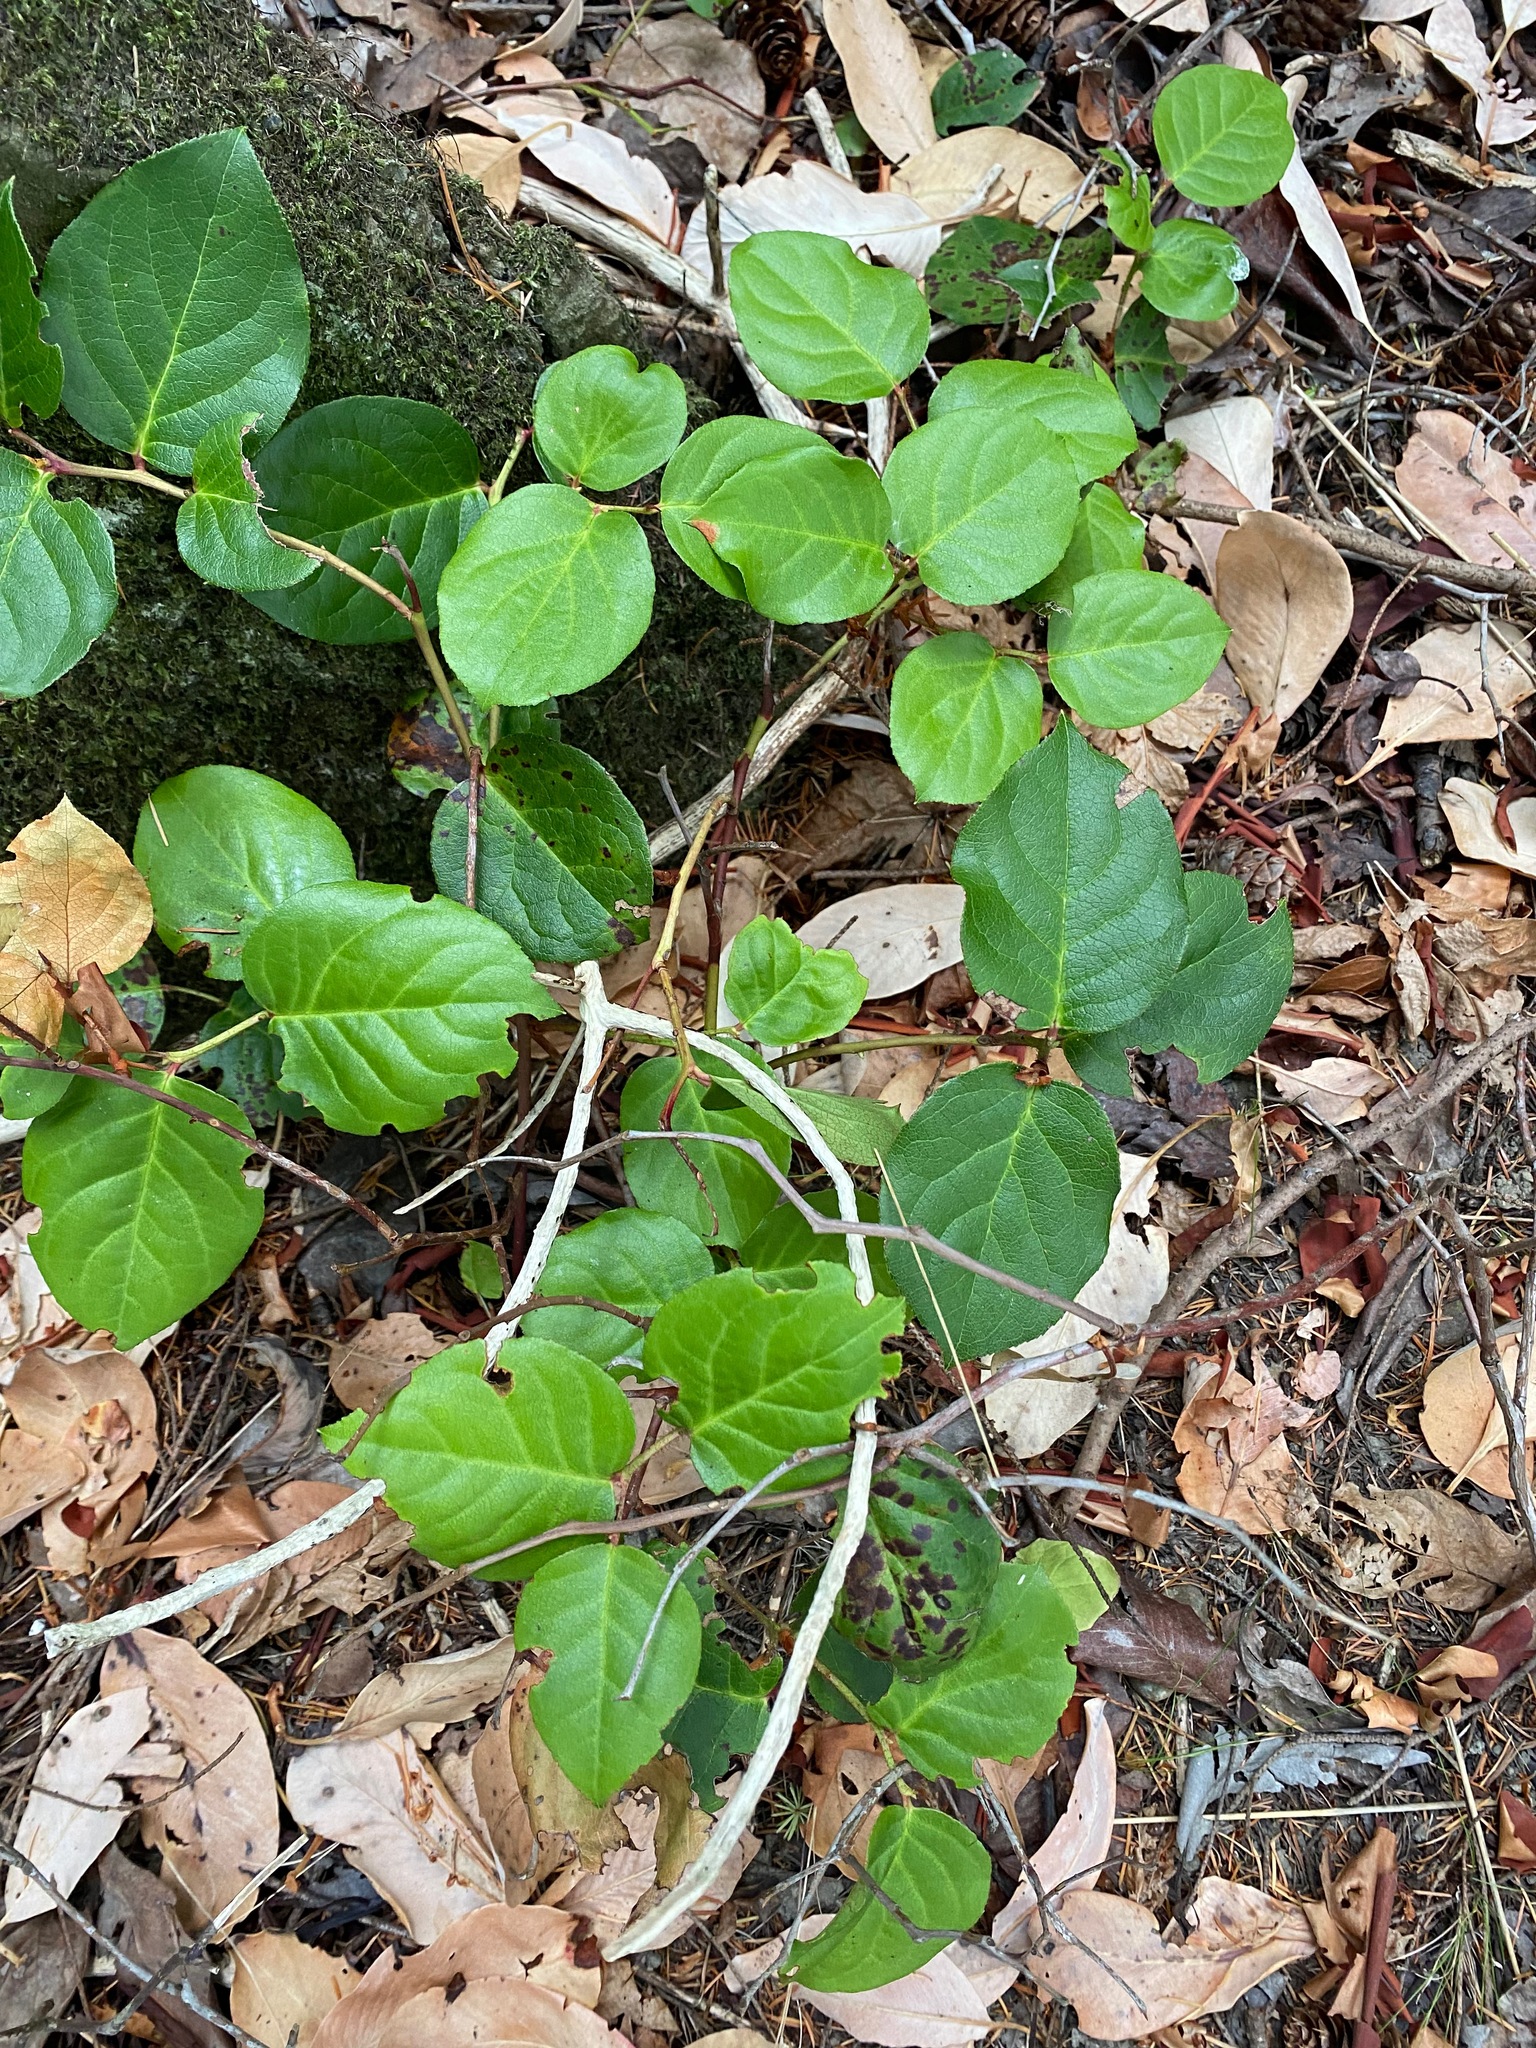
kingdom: Plantae
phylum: Tracheophyta
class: Magnoliopsida
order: Ericales
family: Ericaceae
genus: Gaultheria
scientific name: Gaultheria shallon
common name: Shallon
